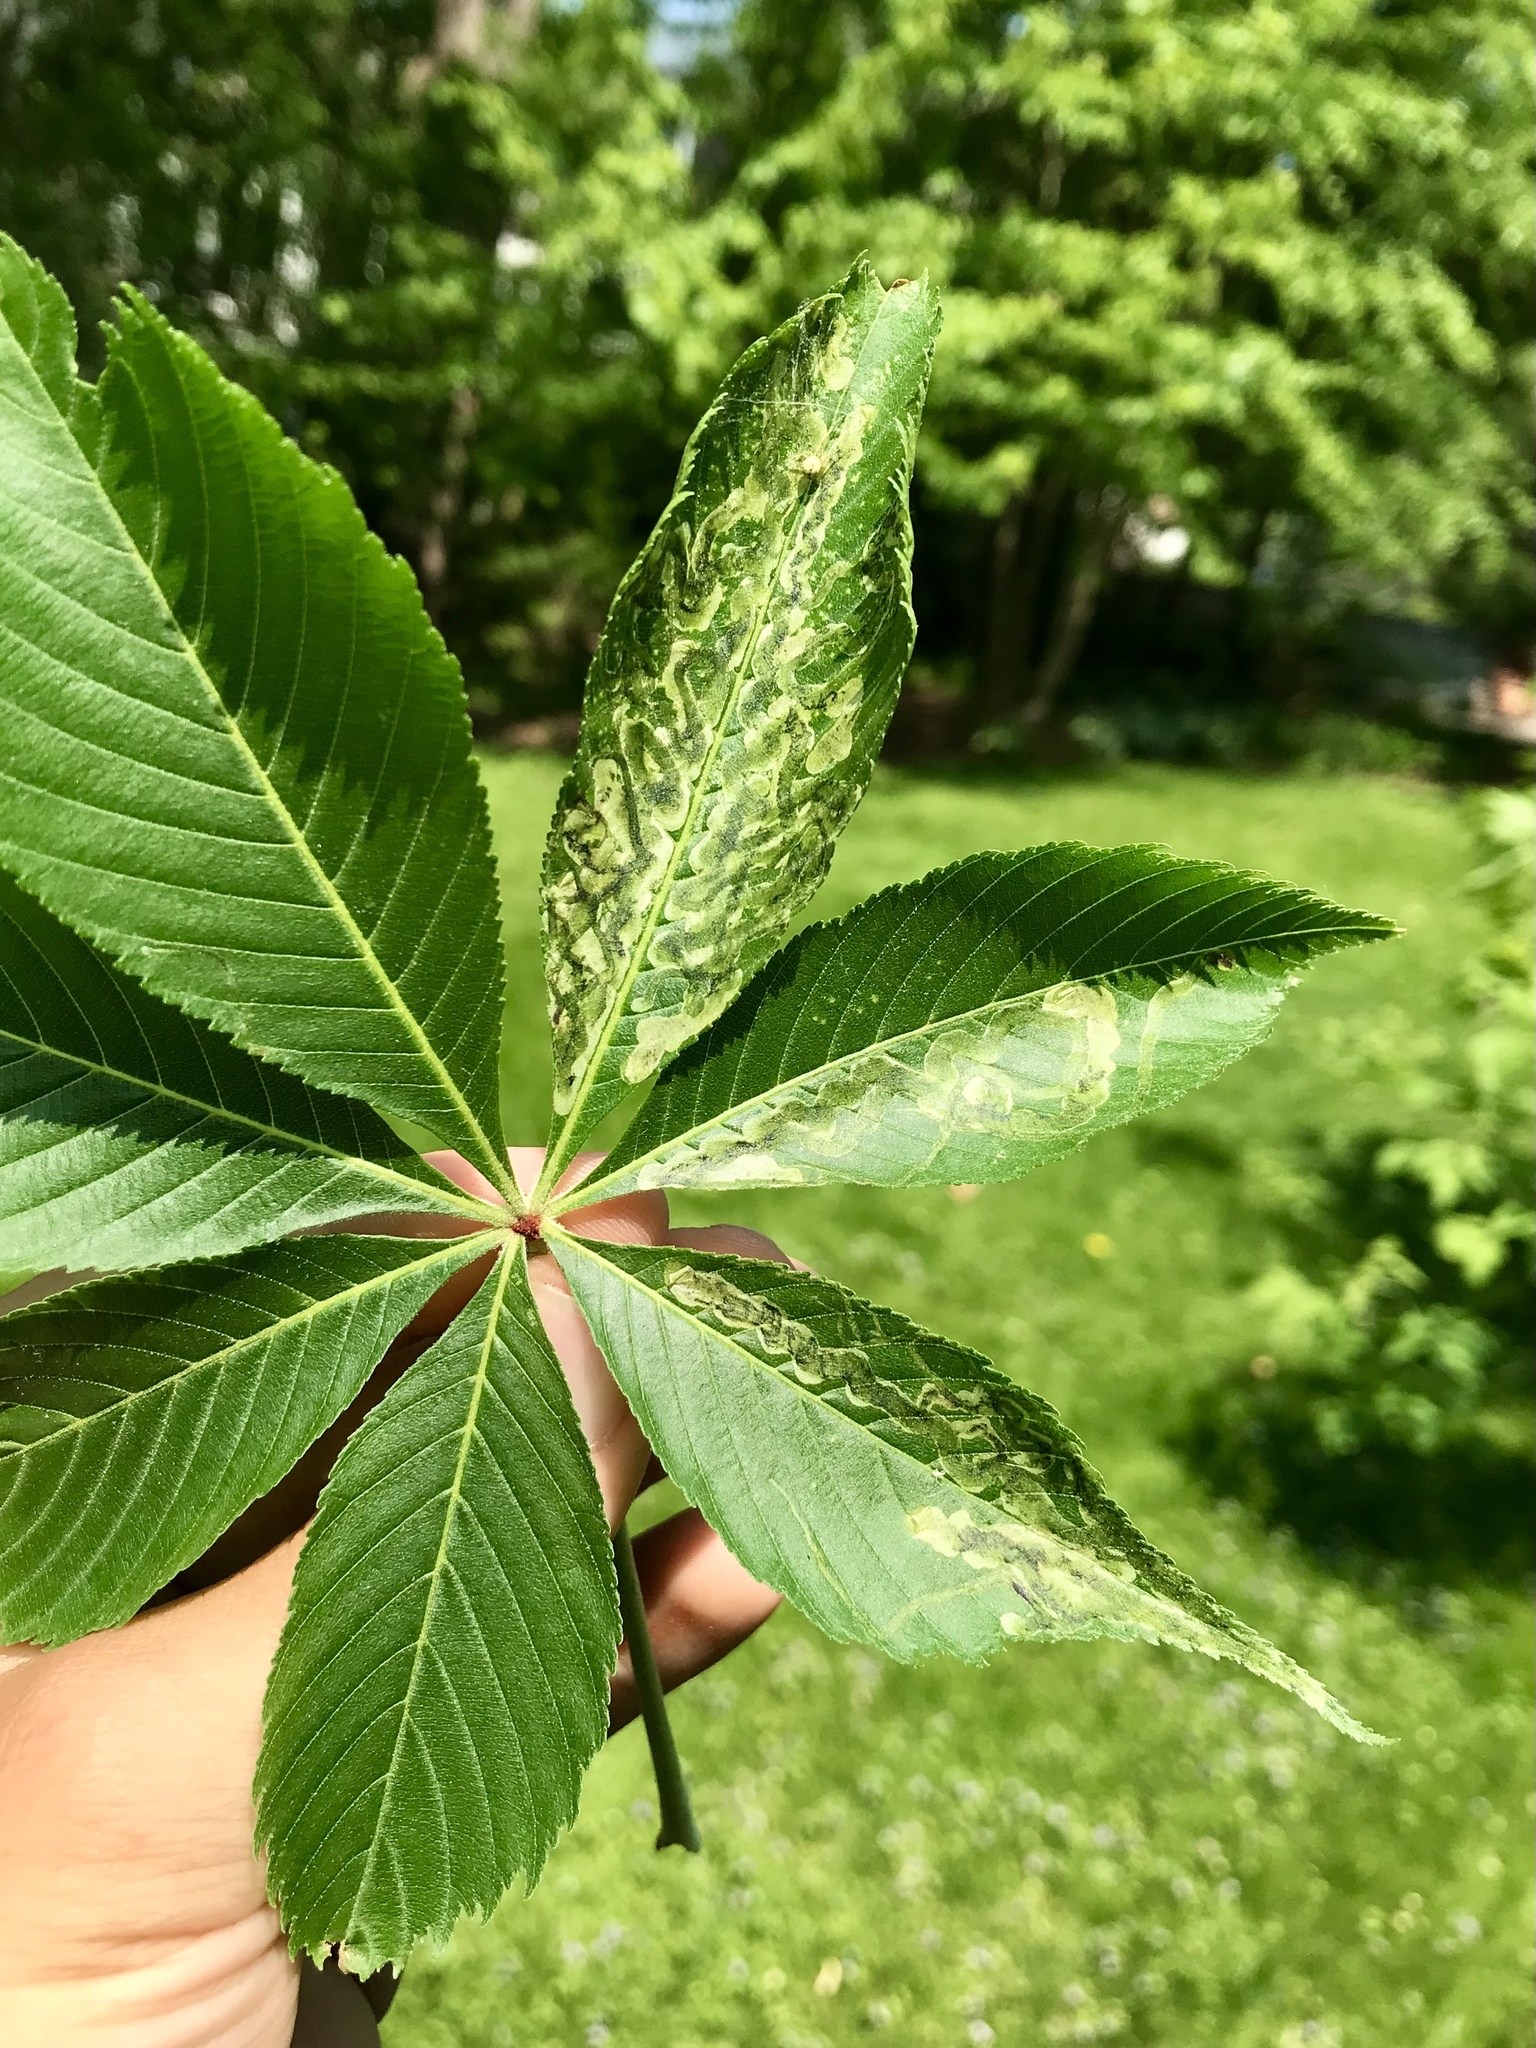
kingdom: Animalia
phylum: Arthropoda
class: Insecta
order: Diptera
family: Agromyzidae
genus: Phytomyza
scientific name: Phytomyza aesculi
